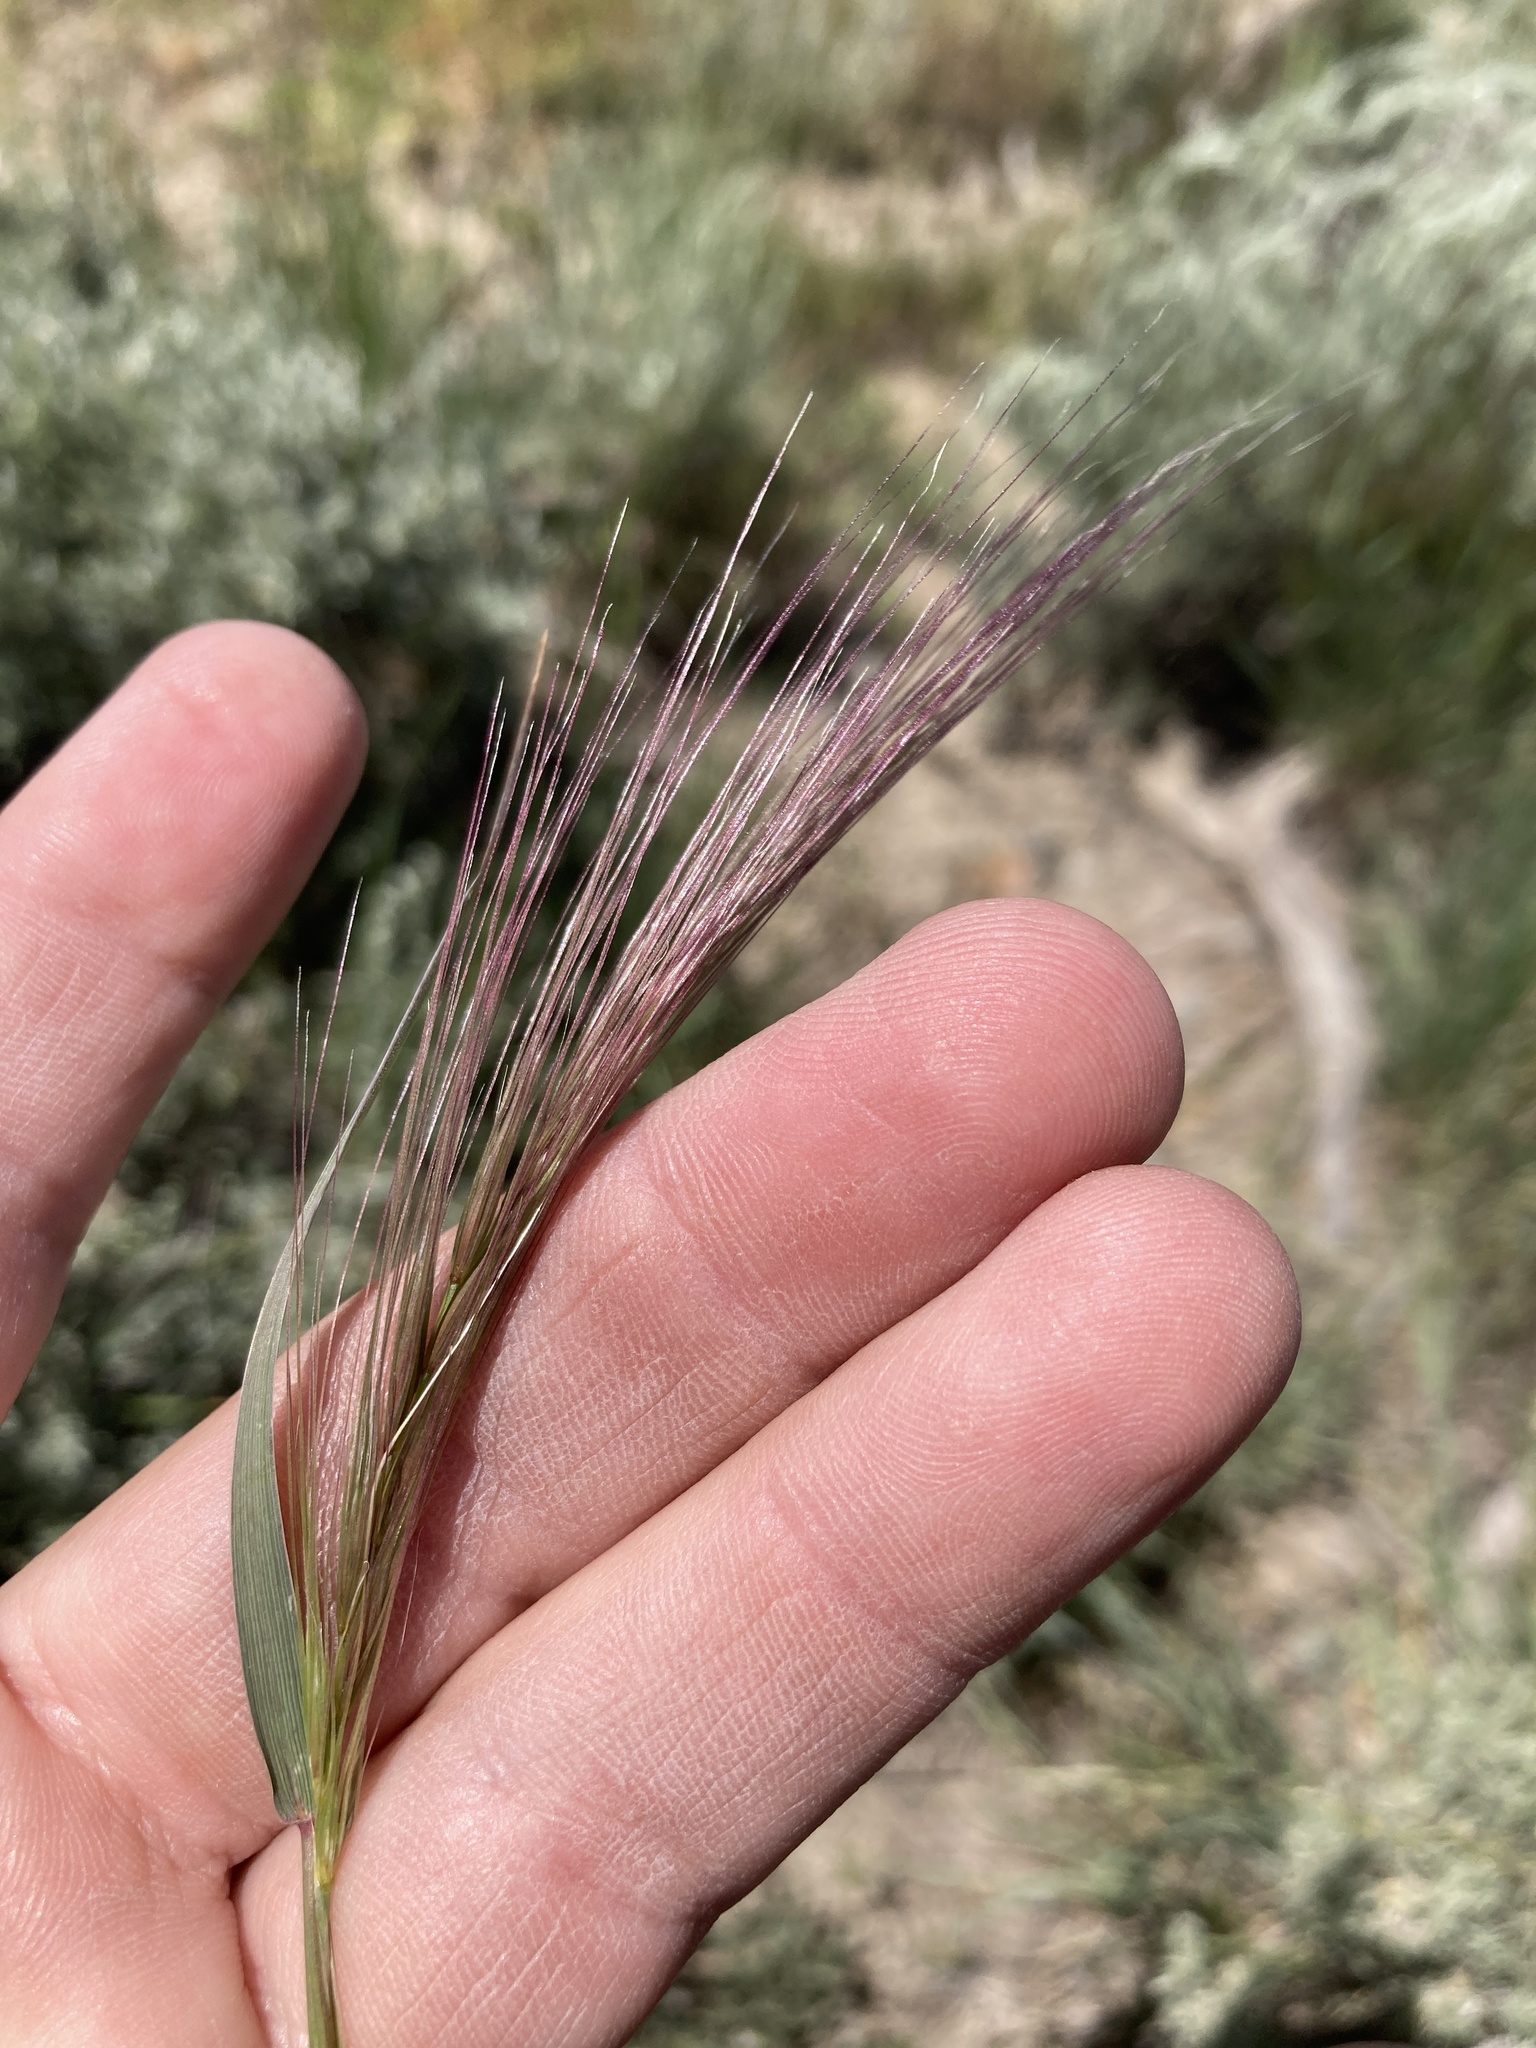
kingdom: Plantae
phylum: Tracheophyta
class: Liliopsida
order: Poales
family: Poaceae
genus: Elymus
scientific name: Elymus elymoides
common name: Bottlebrush squirreltail
